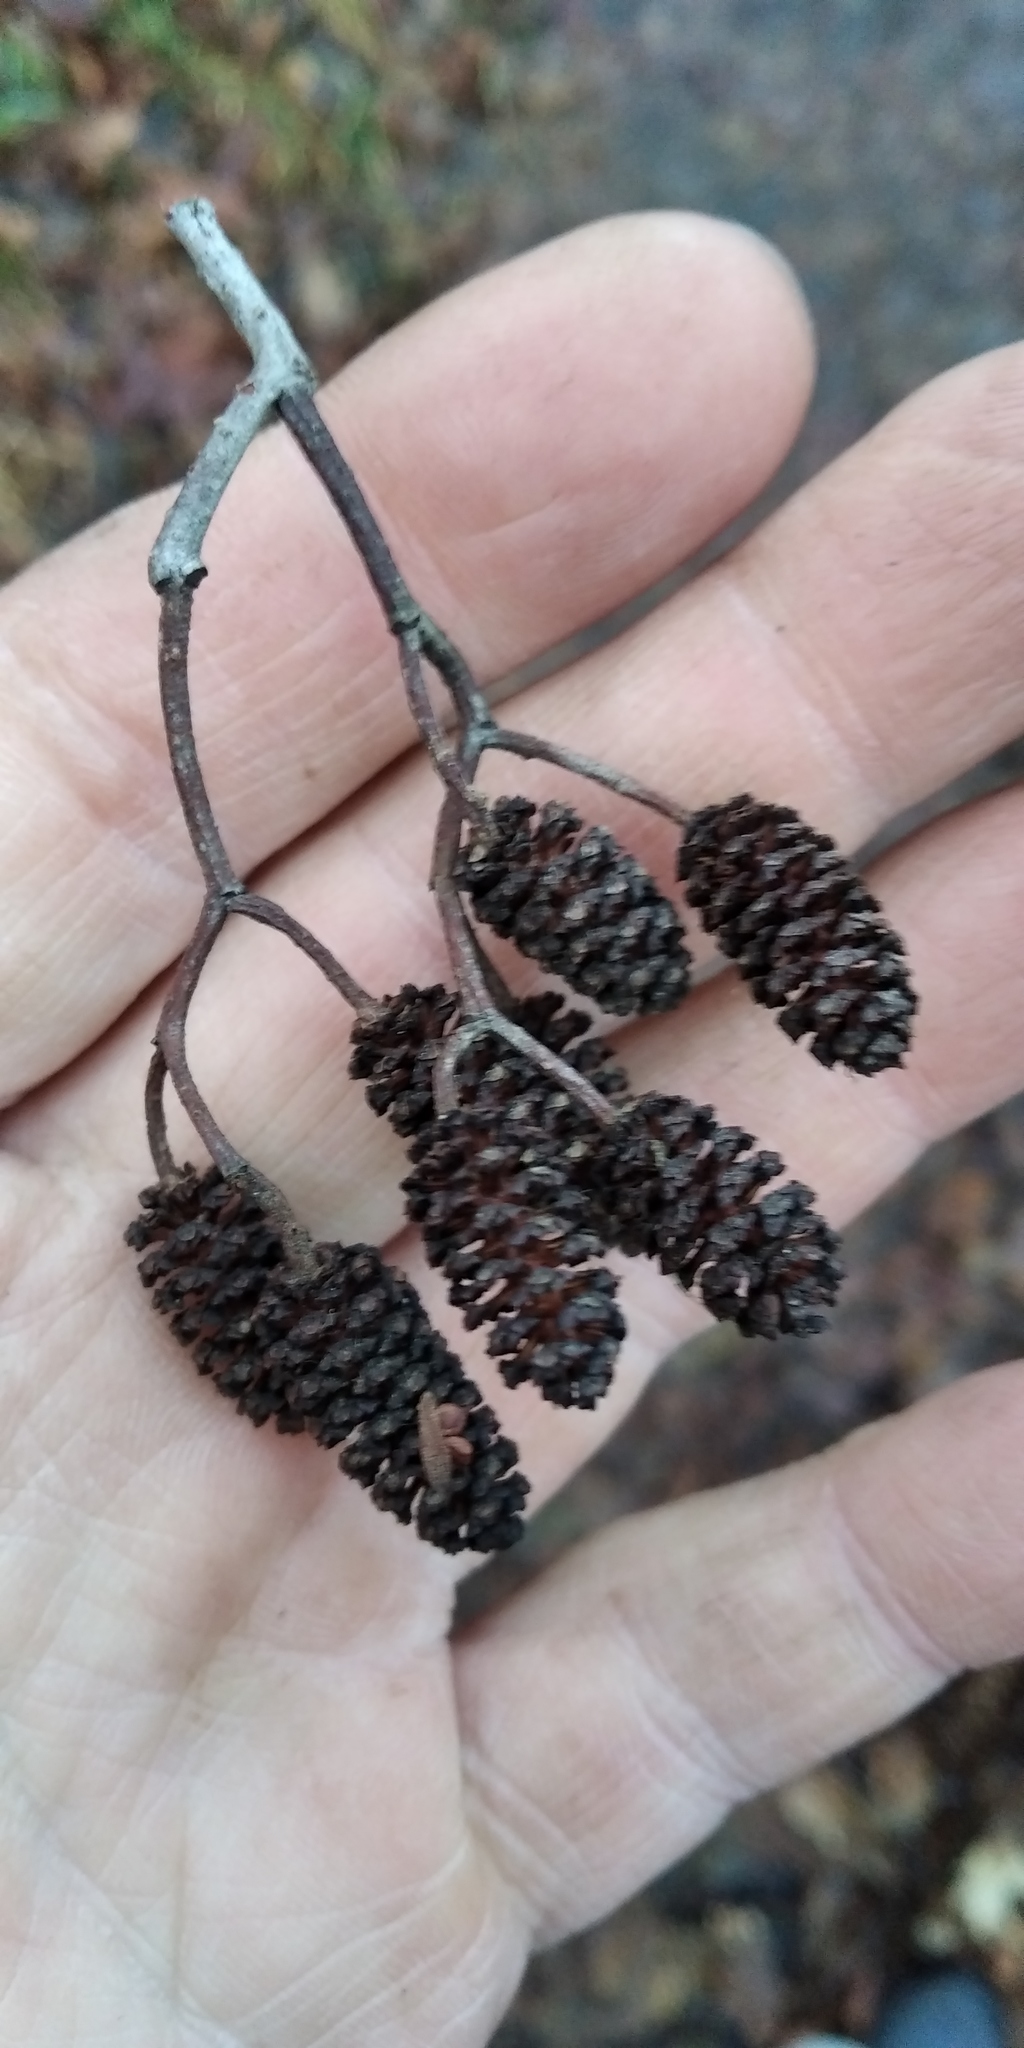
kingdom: Plantae
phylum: Tracheophyta
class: Magnoliopsida
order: Fagales
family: Betulaceae
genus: Alnus
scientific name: Alnus glutinosa
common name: Black alder
